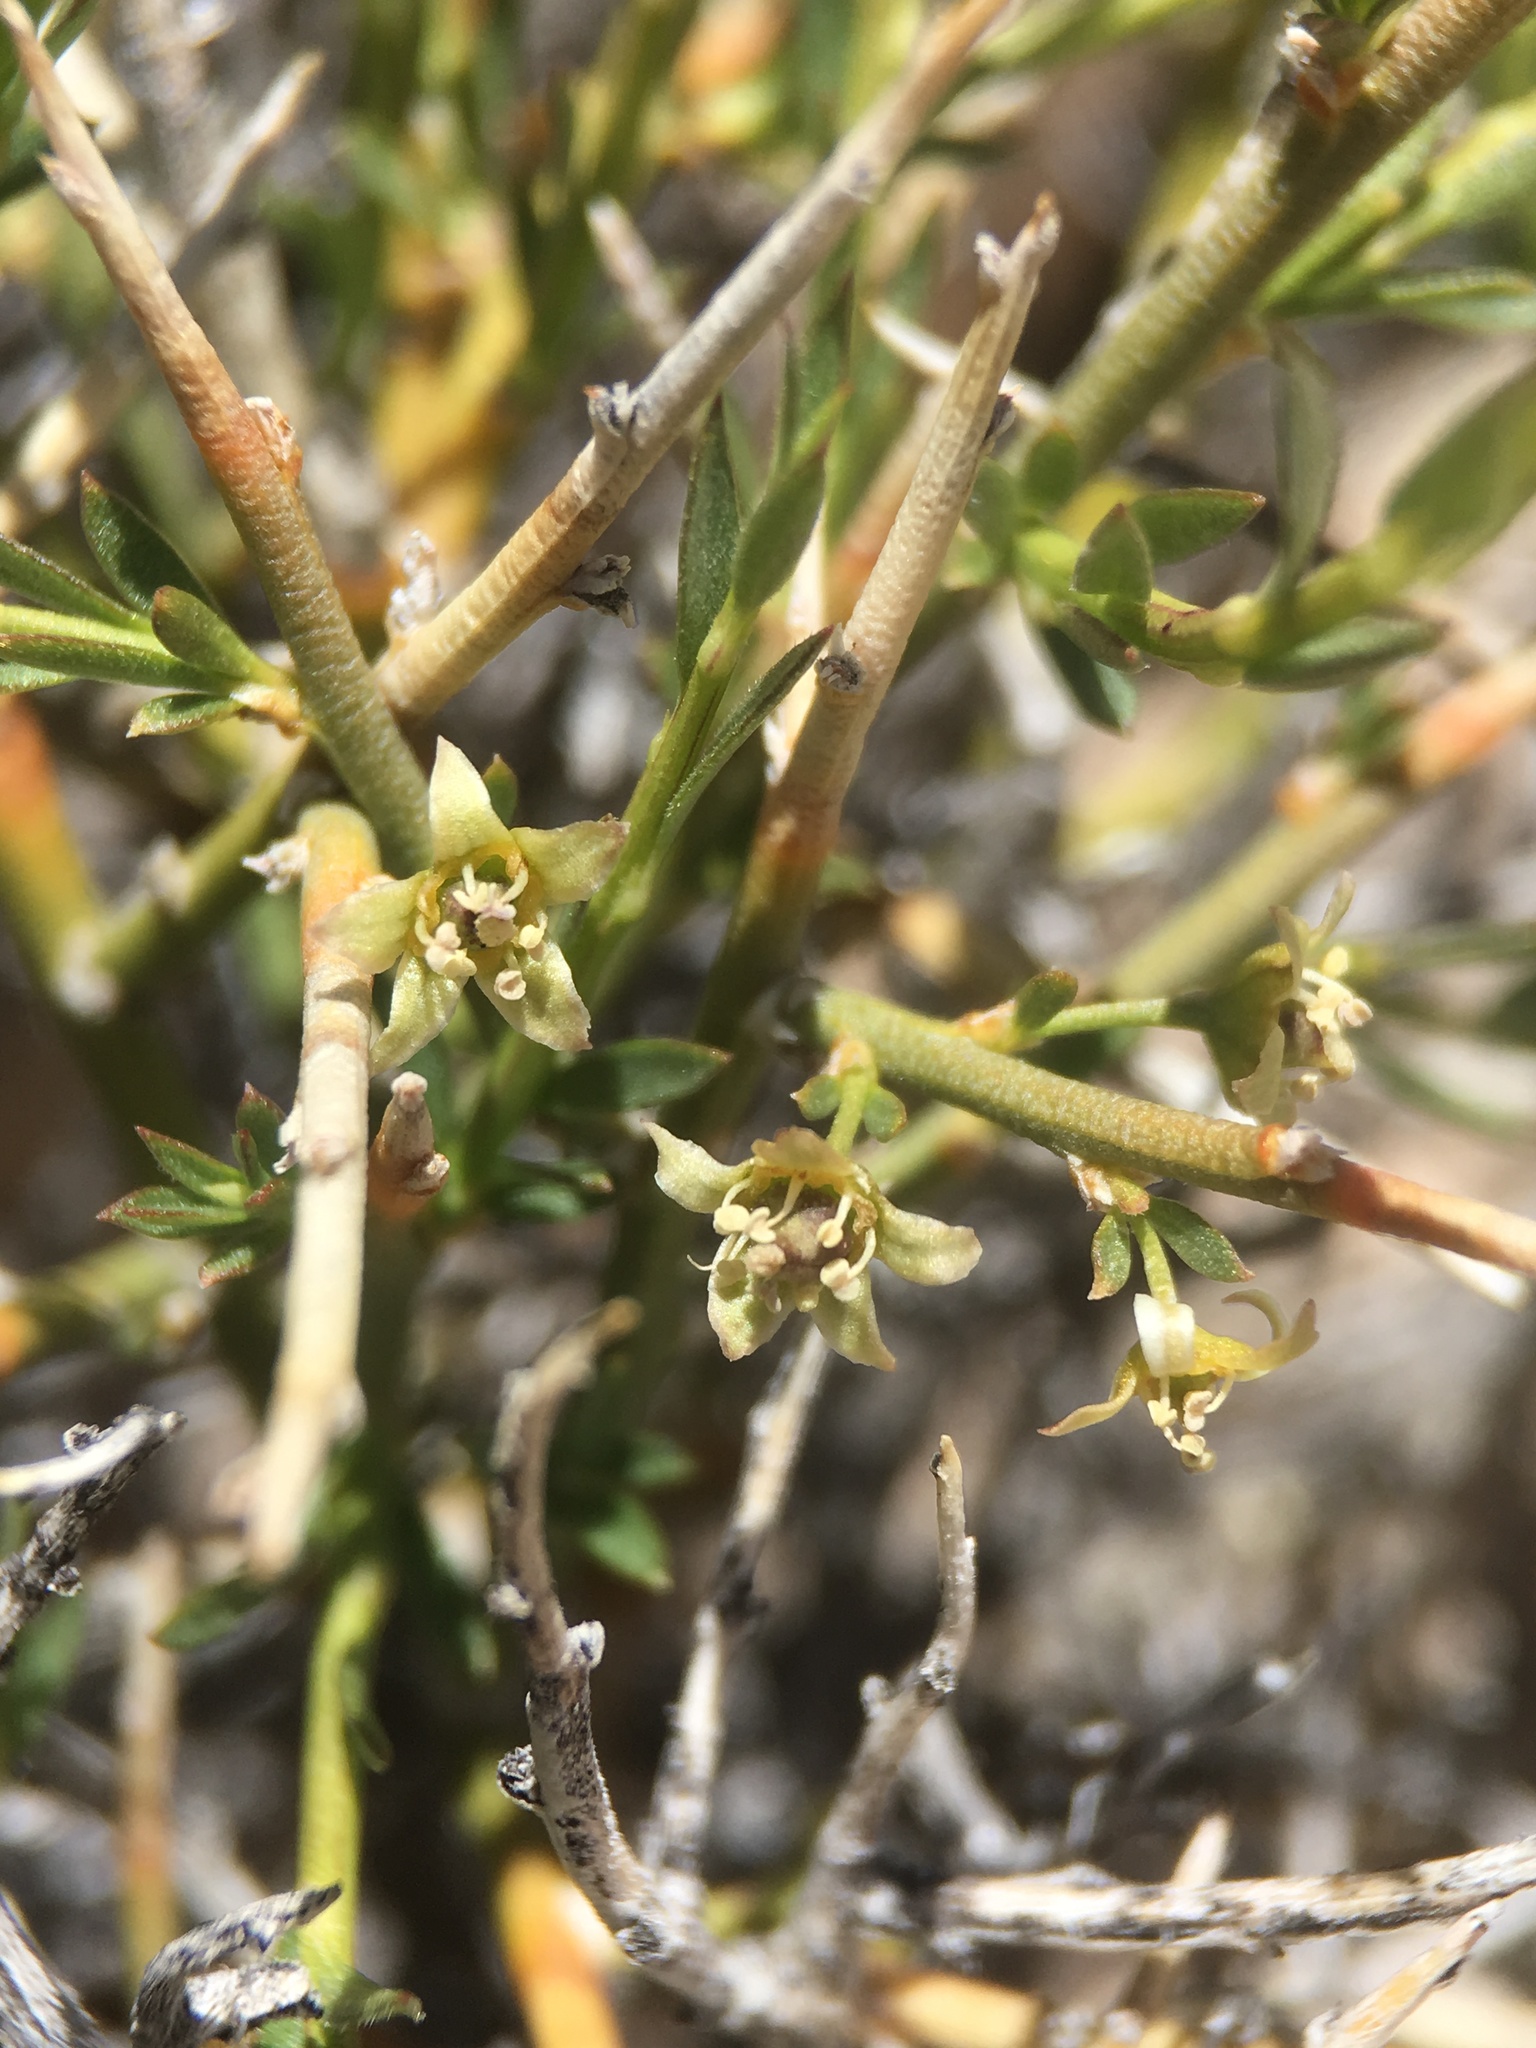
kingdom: Plantae
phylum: Tracheophyta
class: Magnoliopsida
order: Crossosomatales
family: Crossosomataceae
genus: Glossopetalon
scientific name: Glossopetalon spinescens
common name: Spring greasebush
